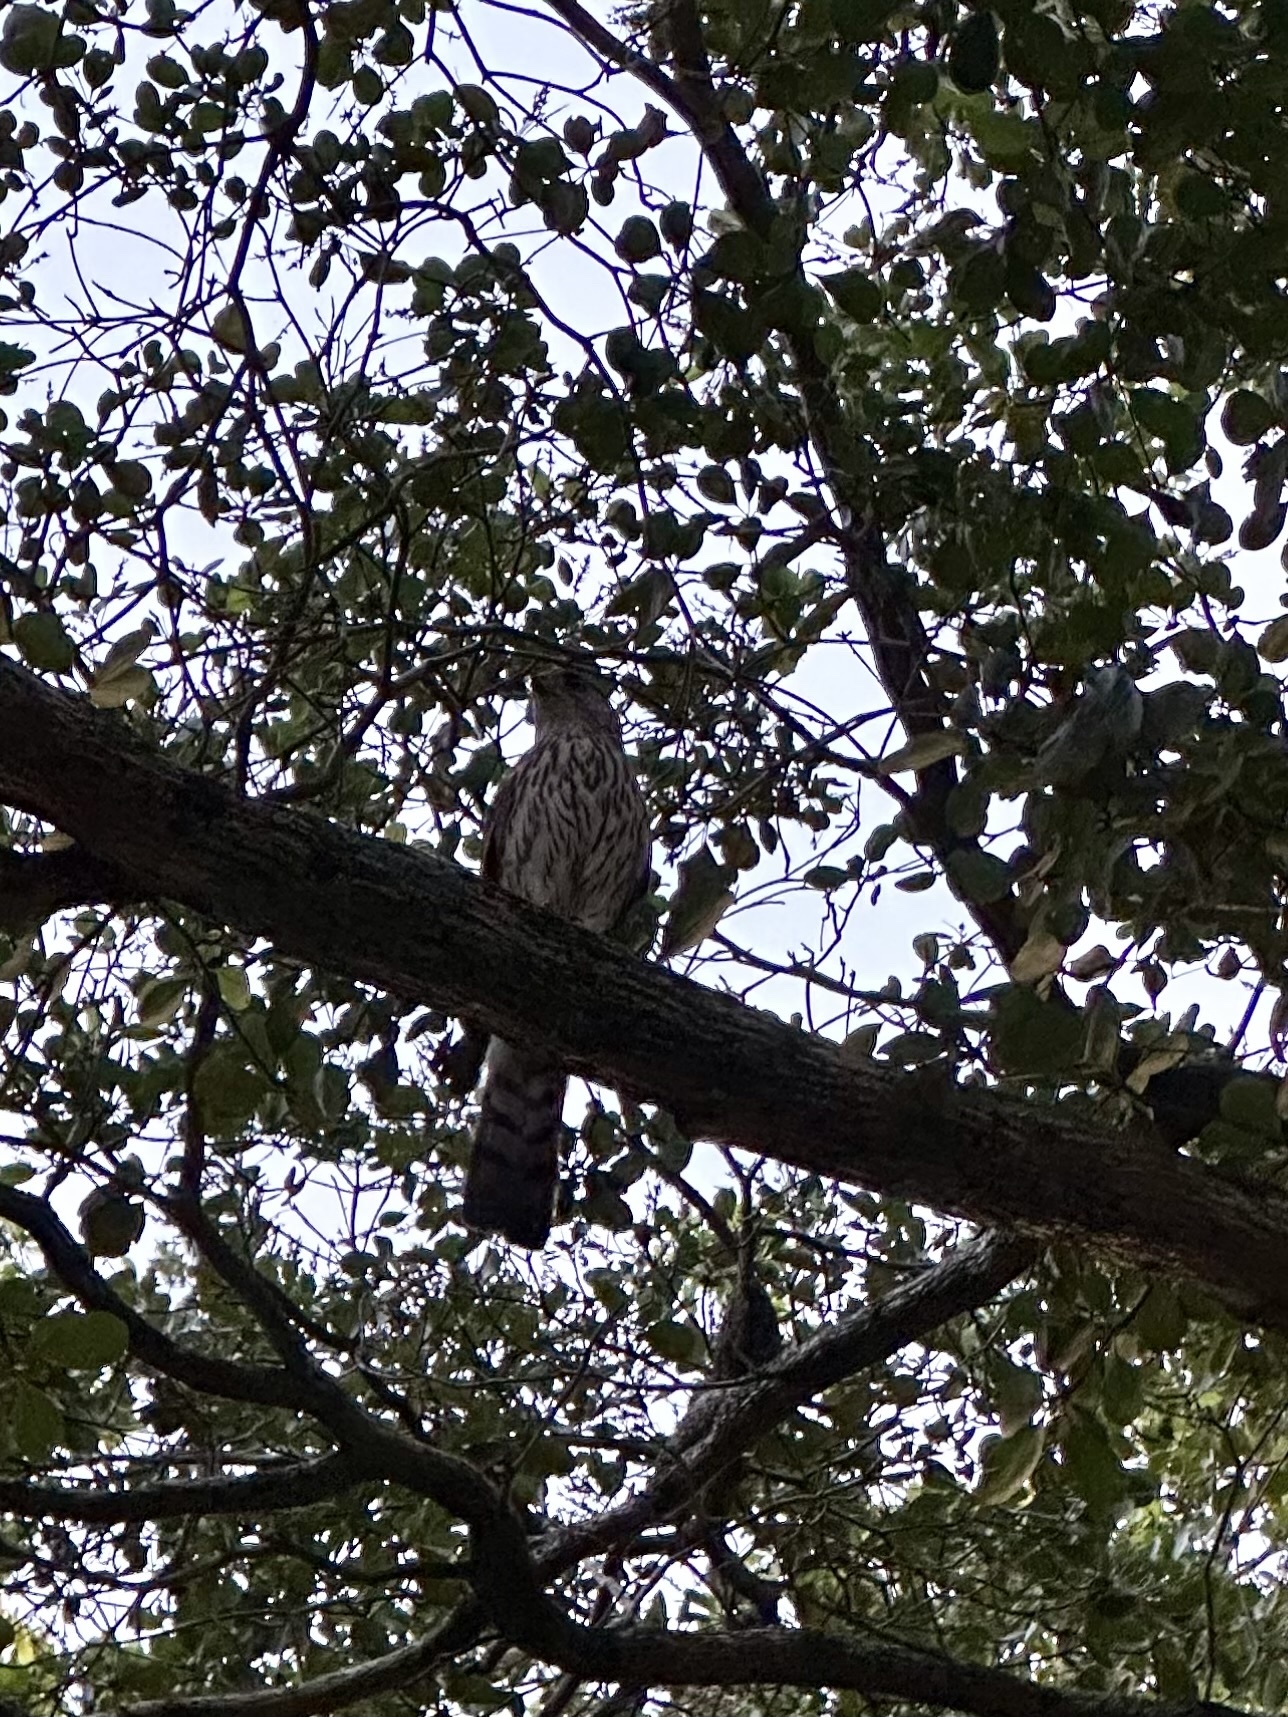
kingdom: Animalia
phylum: Chordata
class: Aves
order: Accipitriformes
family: Accipitridae
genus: Accipiter
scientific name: Accipiter cooperii
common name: Cooper's hawk
